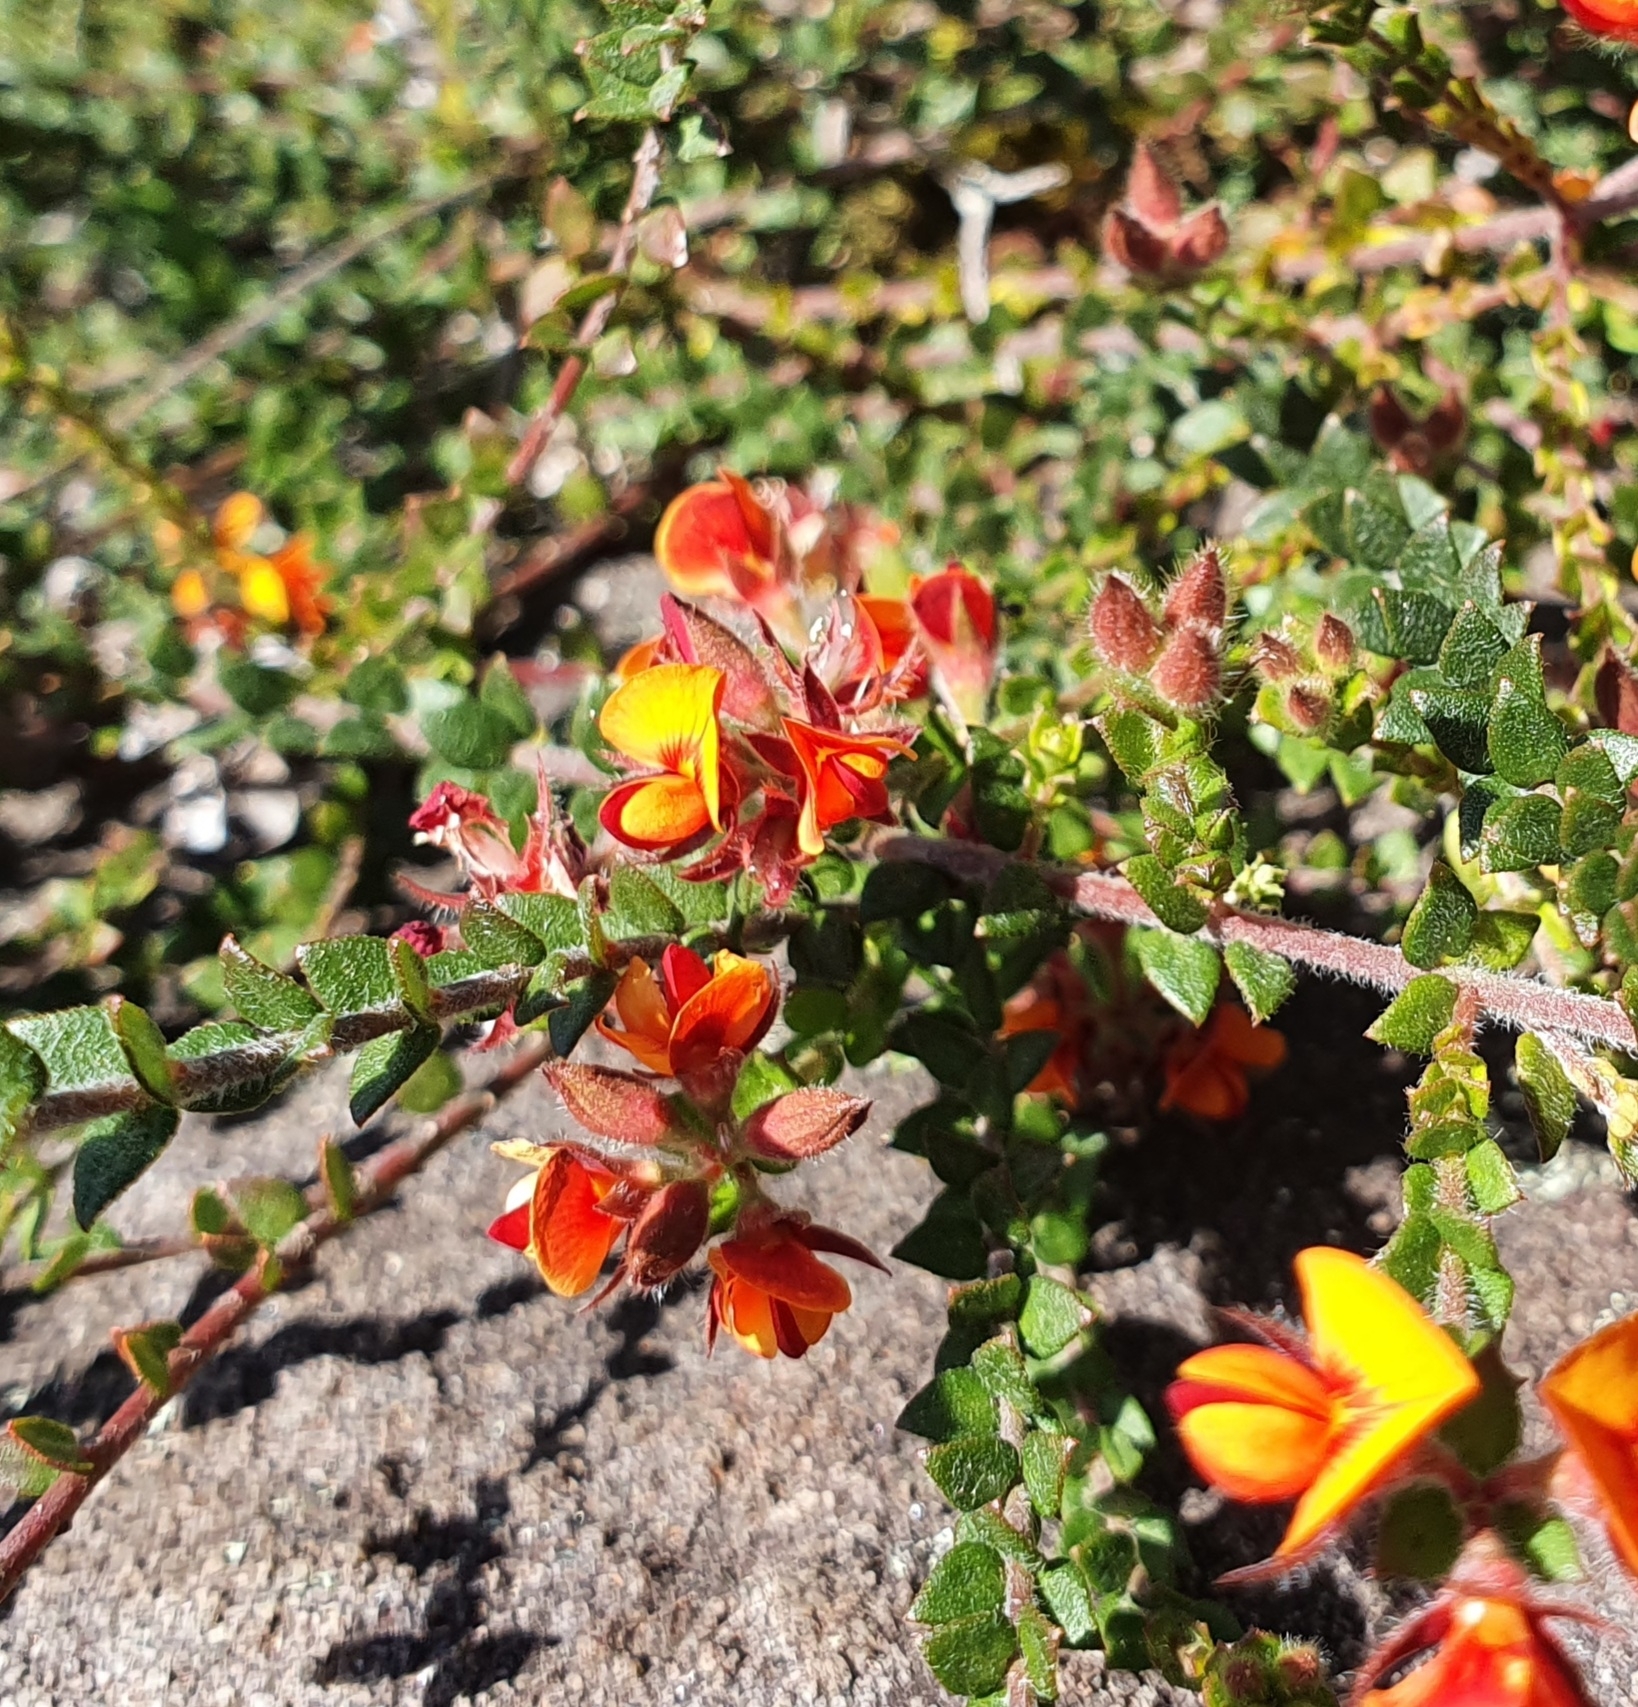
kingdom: Plantae
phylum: Tracheophyta
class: Magnoliopsida
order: Fabales
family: Fabaceae
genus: Oxylobium
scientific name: Oxylobium cordifolium
